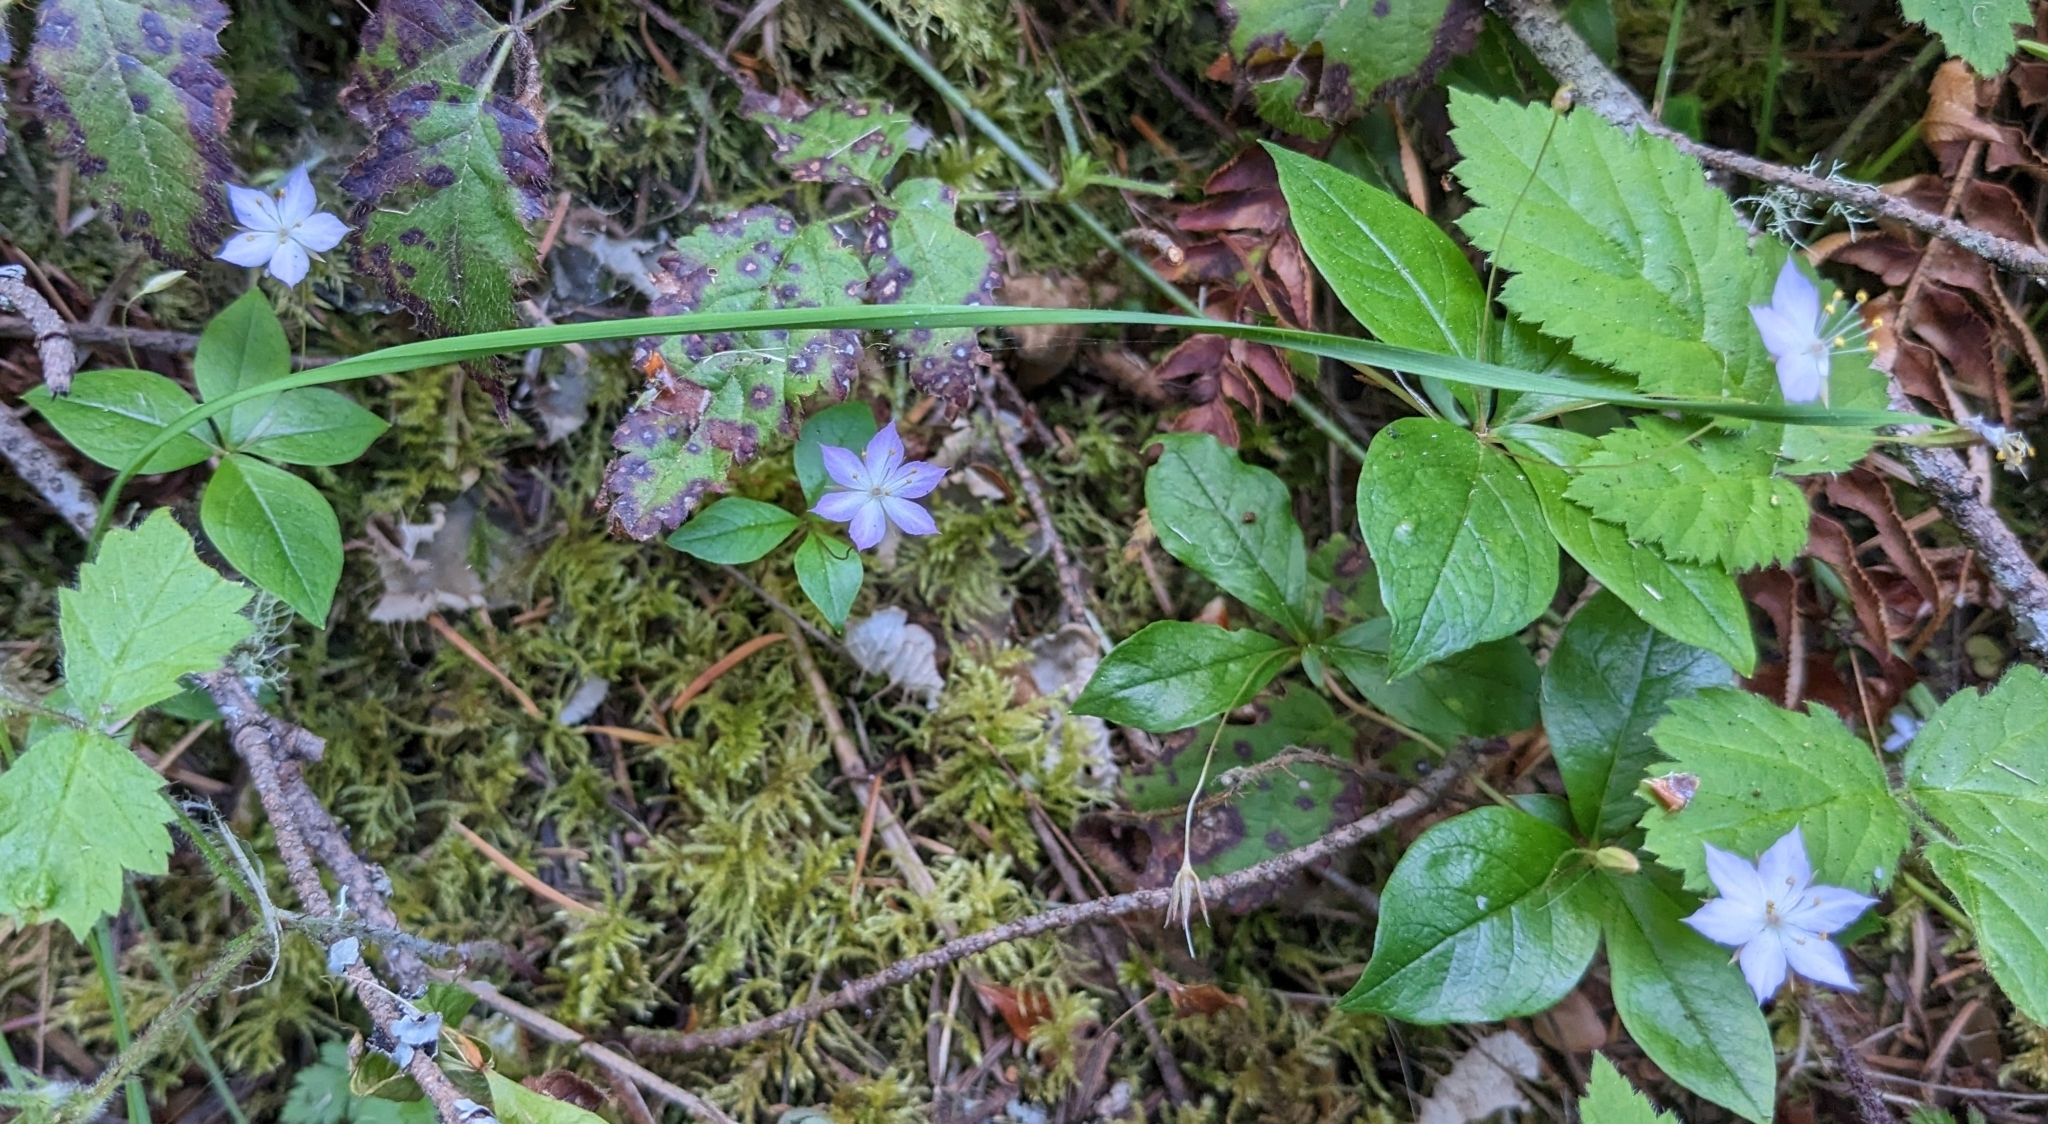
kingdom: Plantae
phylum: Tracheophyta
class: Magnoliopsida
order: Ericales
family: Primulaceae
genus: Lysimachia
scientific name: Lysimachia latifolia
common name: Pacific starflower
